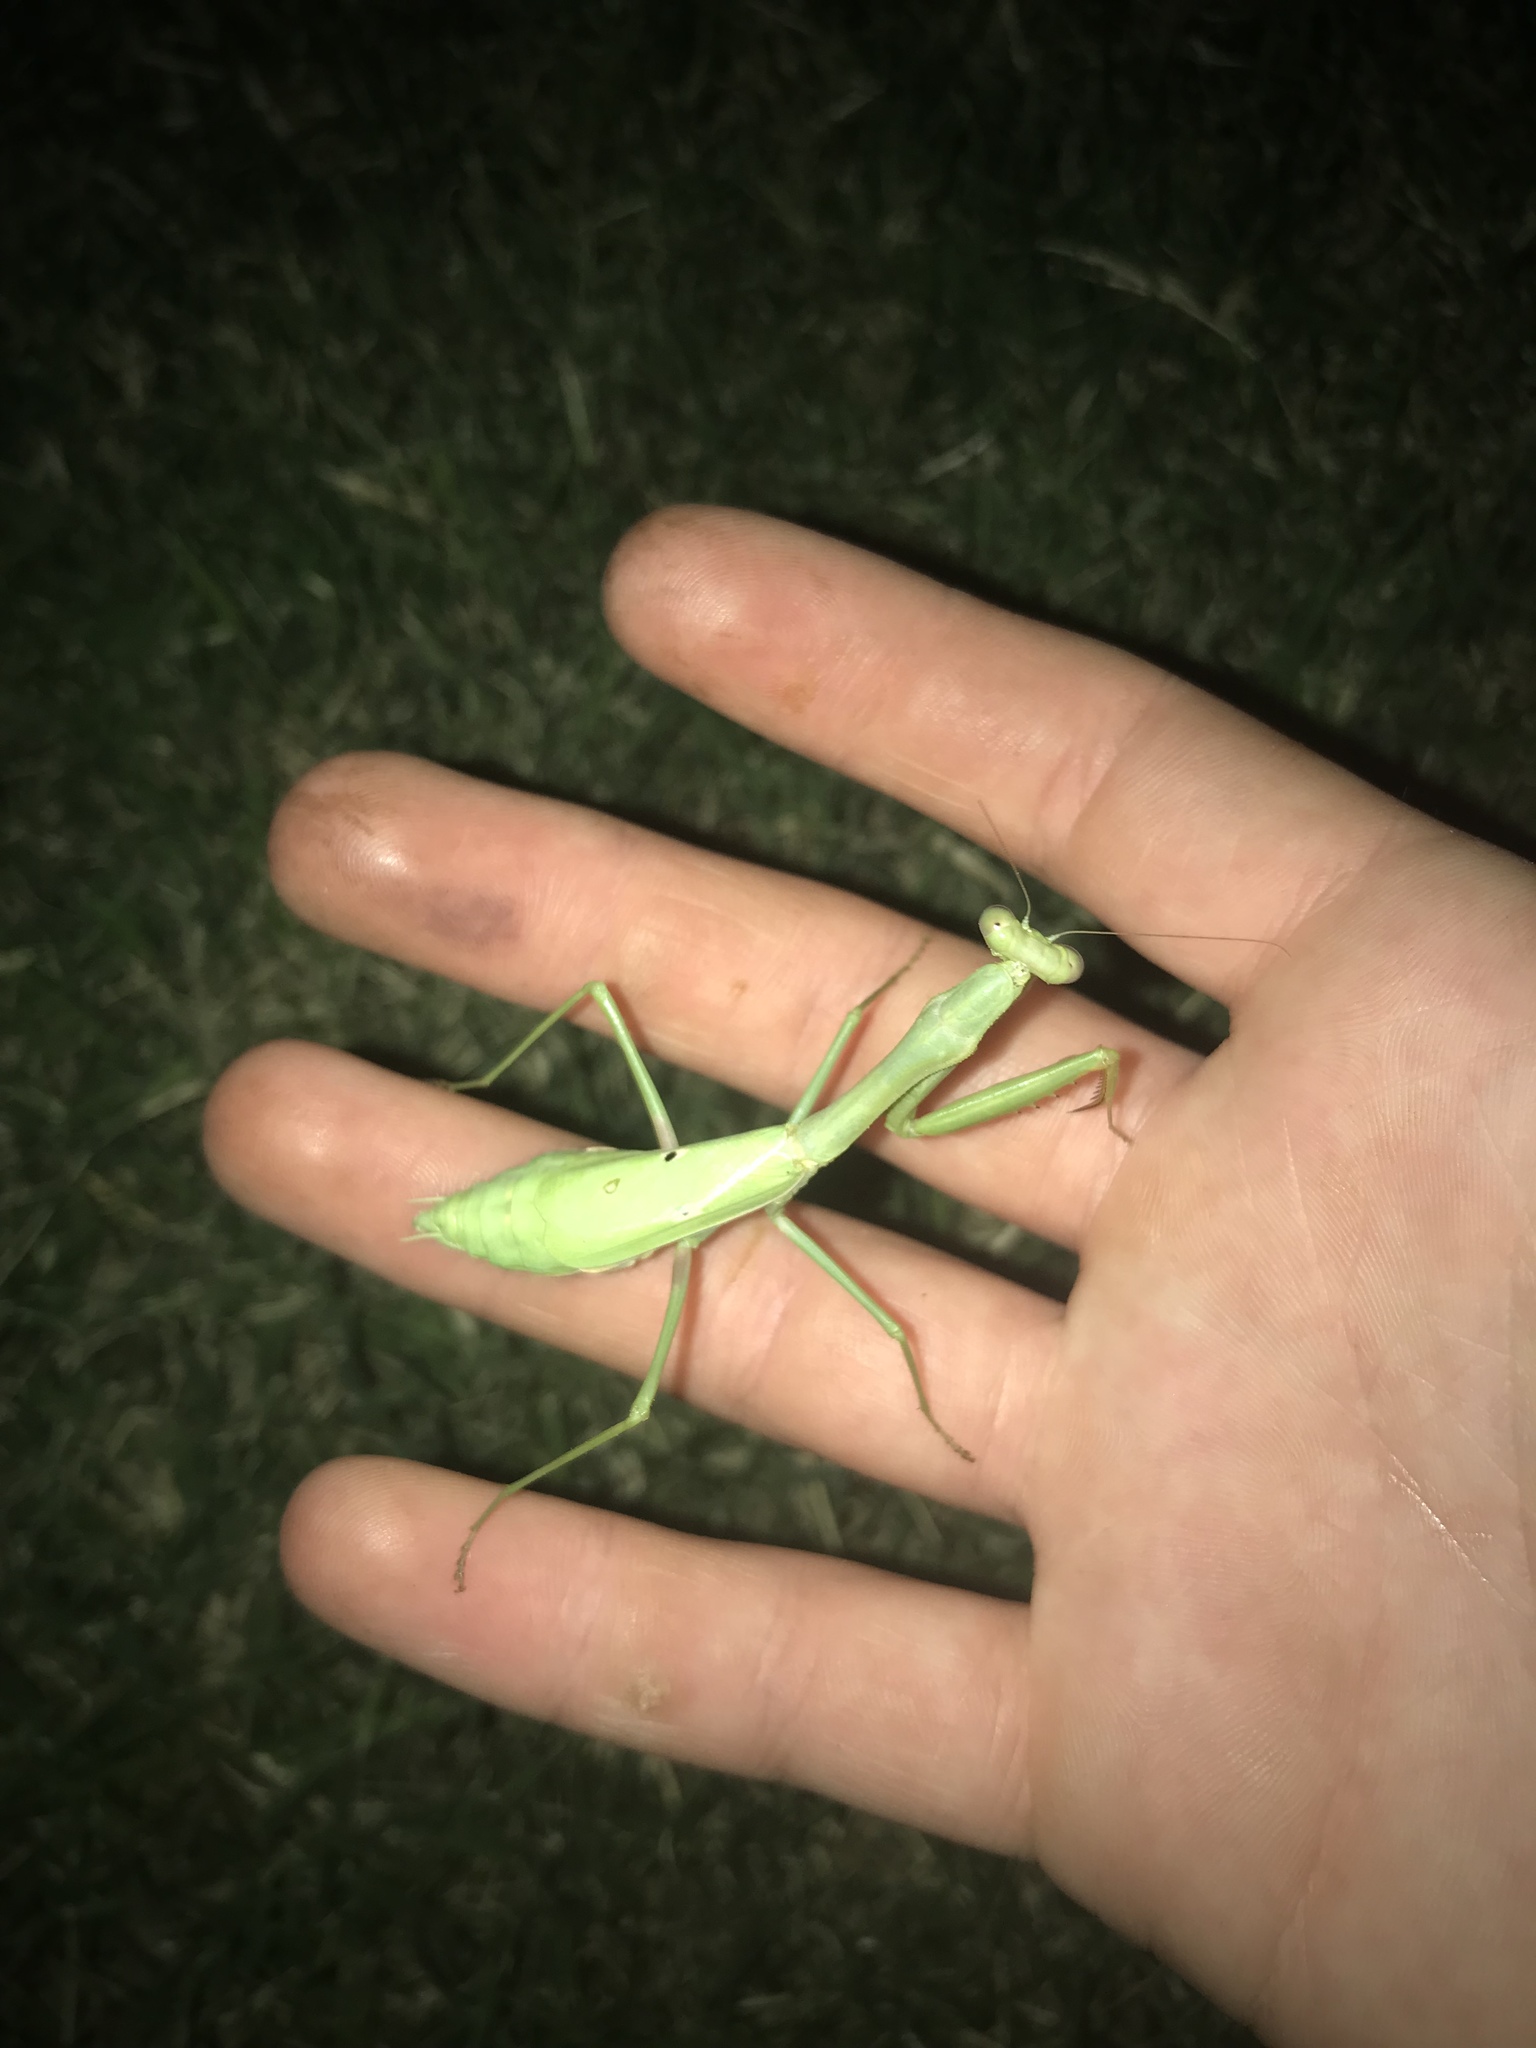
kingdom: Animalia
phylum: Arthropoda
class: Insecta
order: Mantodea
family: Mantidae
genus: Stagmomantis
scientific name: Stagmomantis carolina
